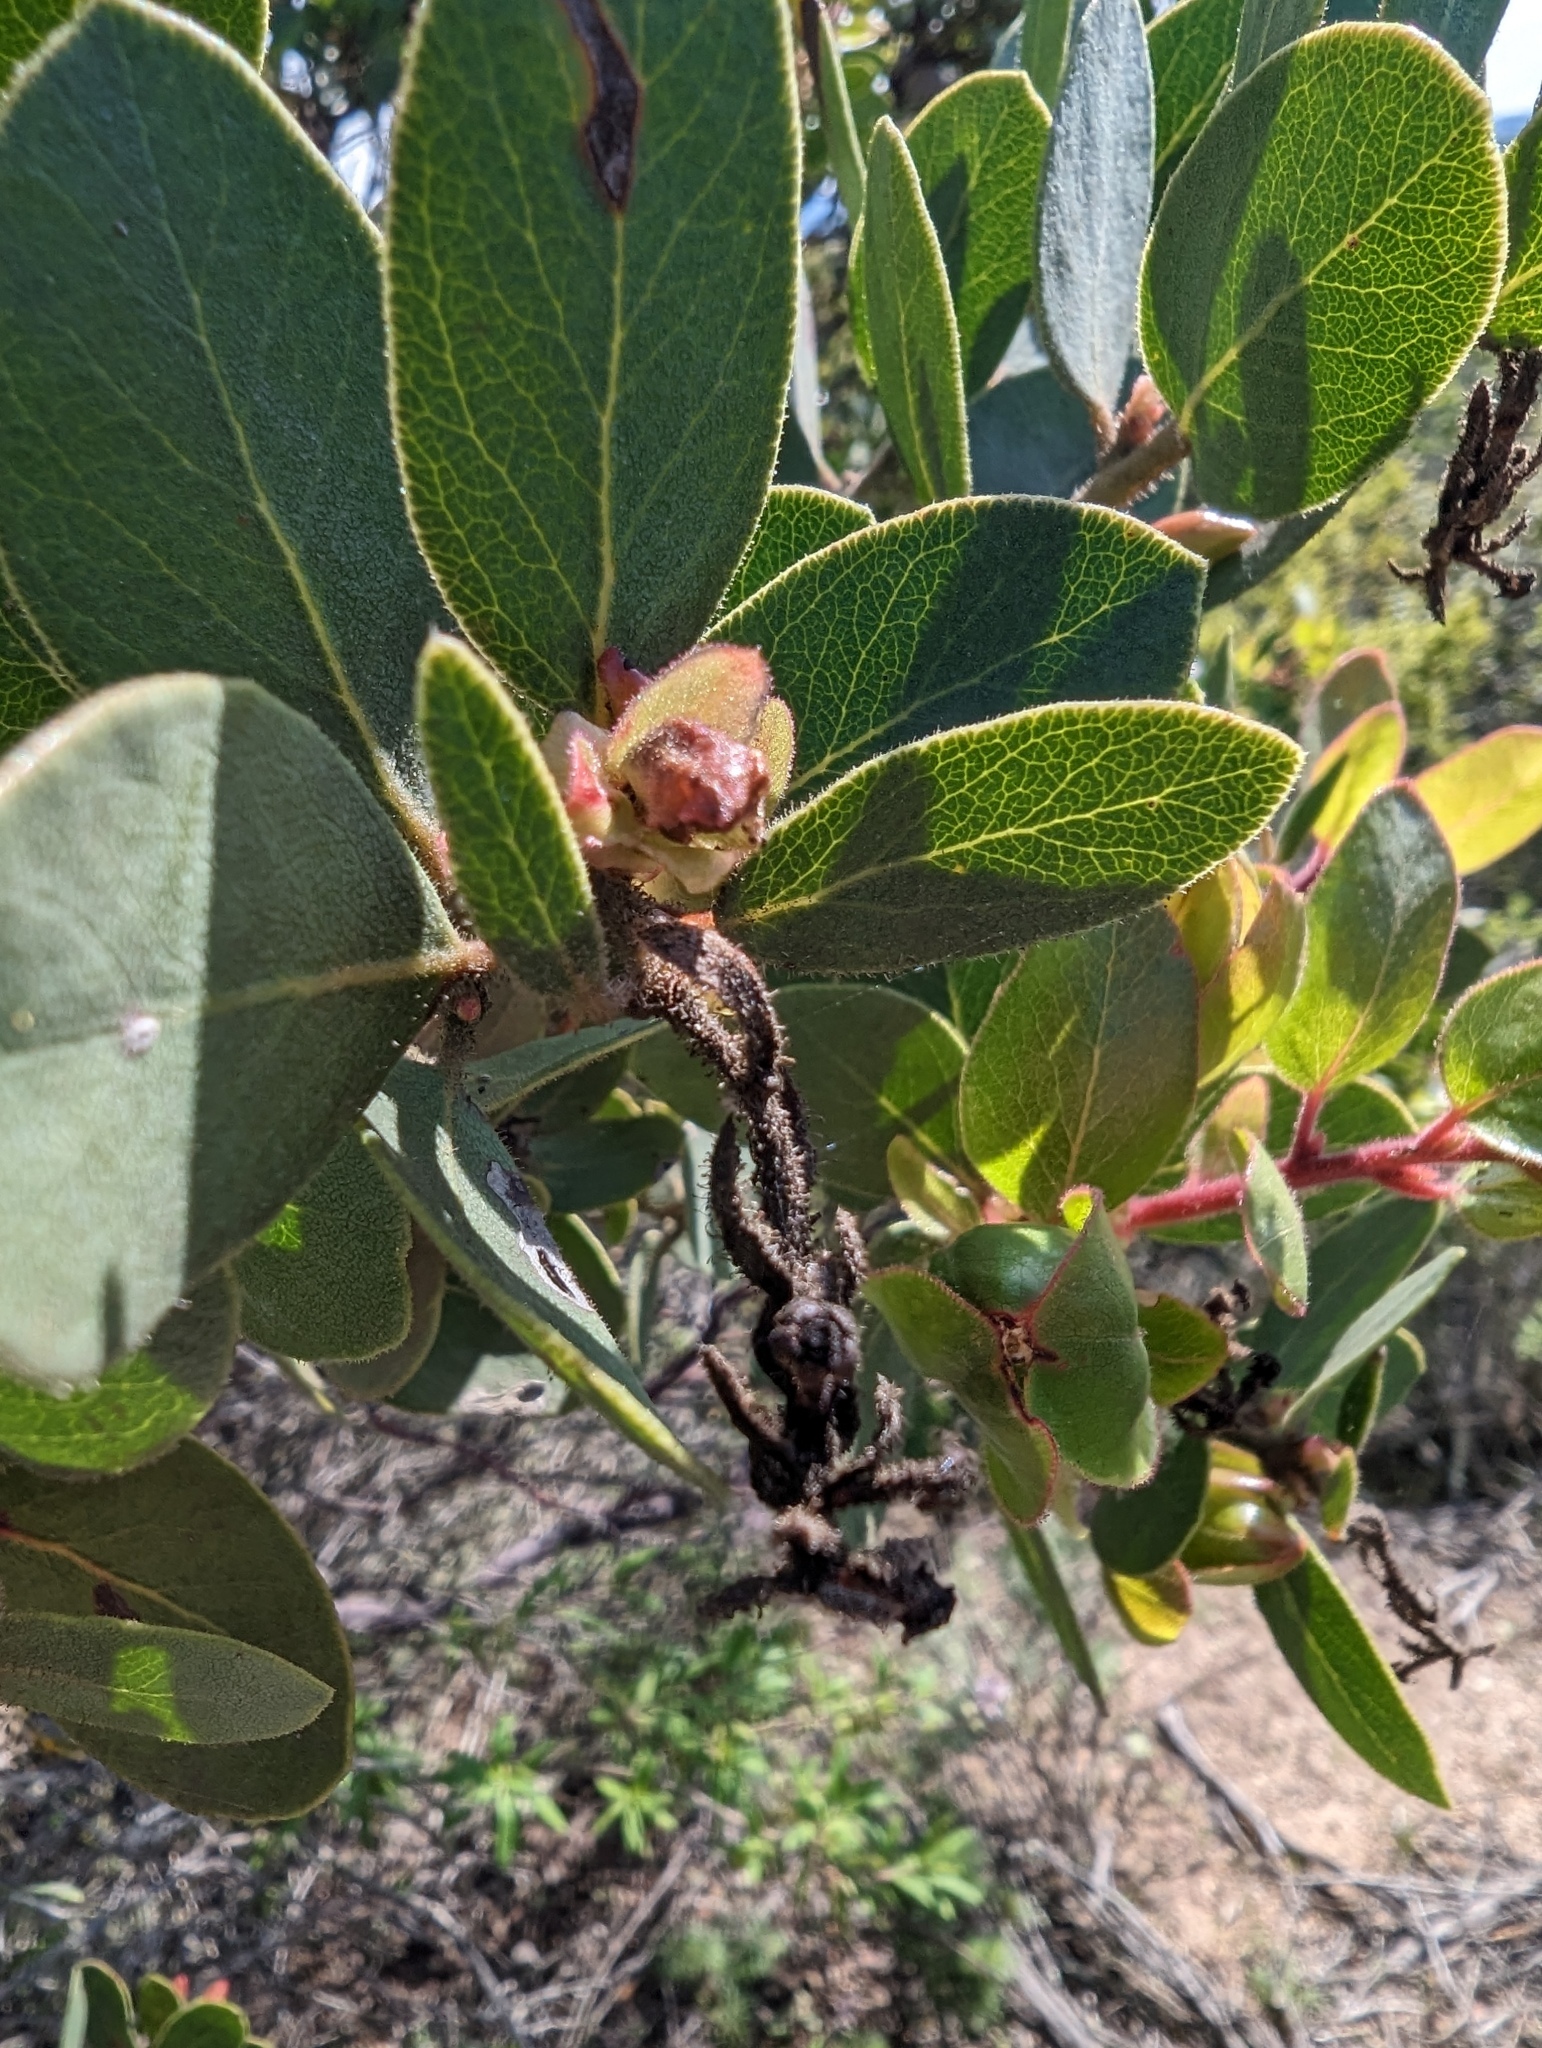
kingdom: Plantae
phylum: Tracheophyta
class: Magnoliopsida
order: Ericales
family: Ericaceae
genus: Arctostaphylos
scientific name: Arctostaphylos montereyensis
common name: Monterey manzanita
